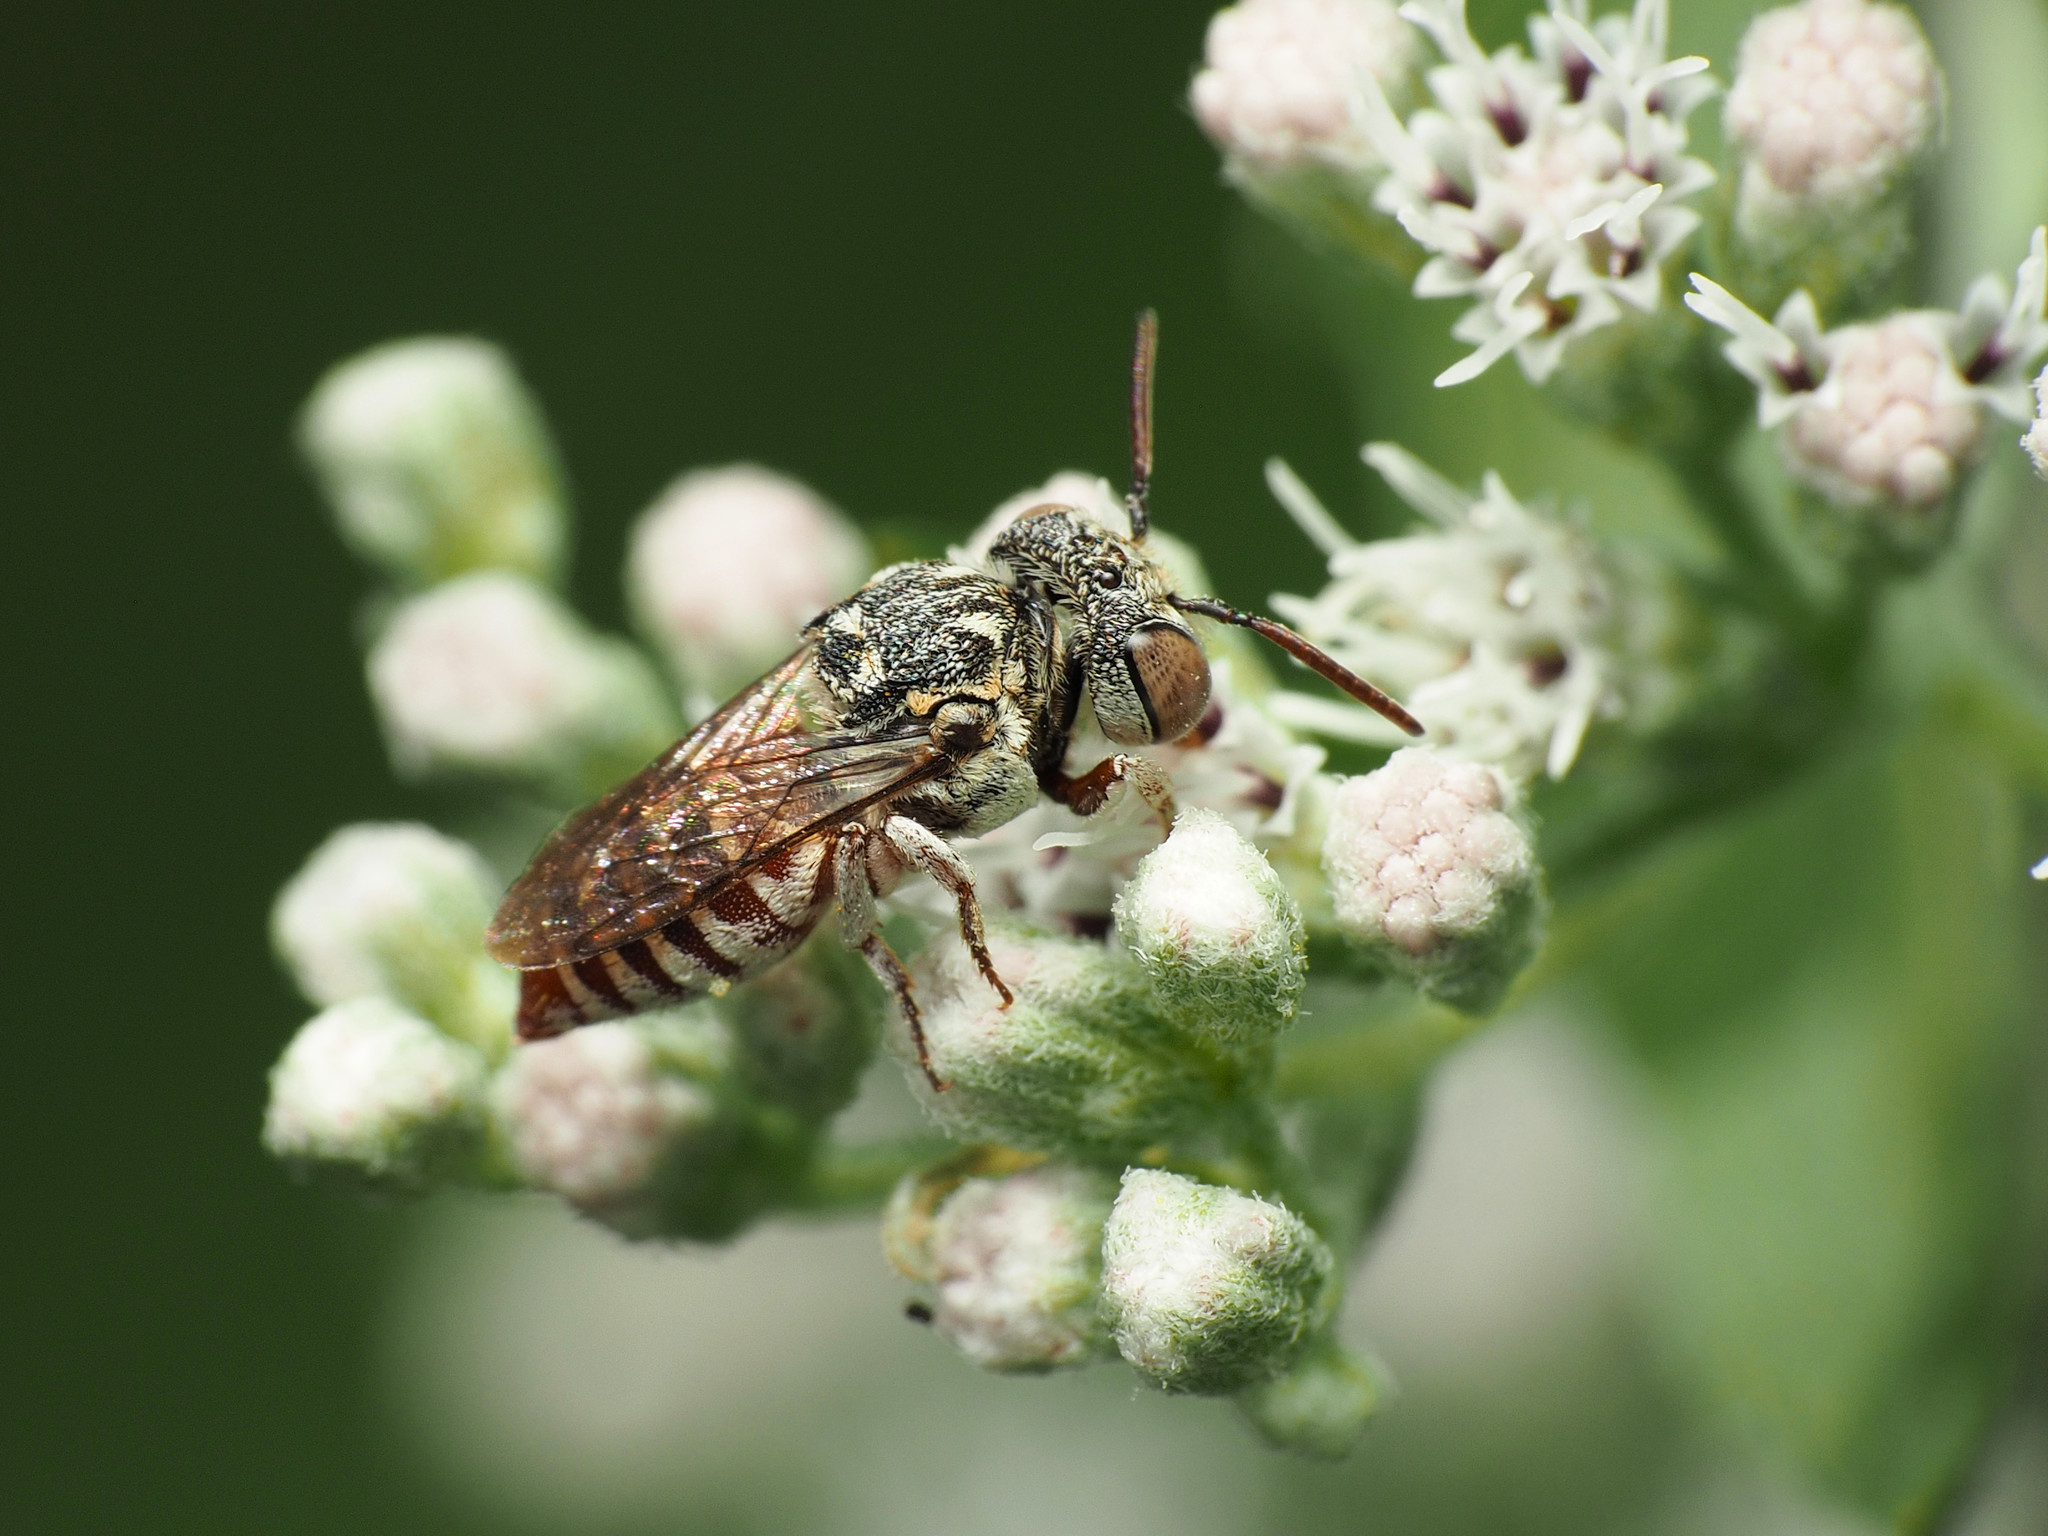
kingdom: Animalia
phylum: Arthropoda
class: Insecta
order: Hymenoptera
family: Megachilidae
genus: Coelioxys
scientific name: Coelioxys coturnix
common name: Red-tailed cuckoo-leaf-cutter bee
